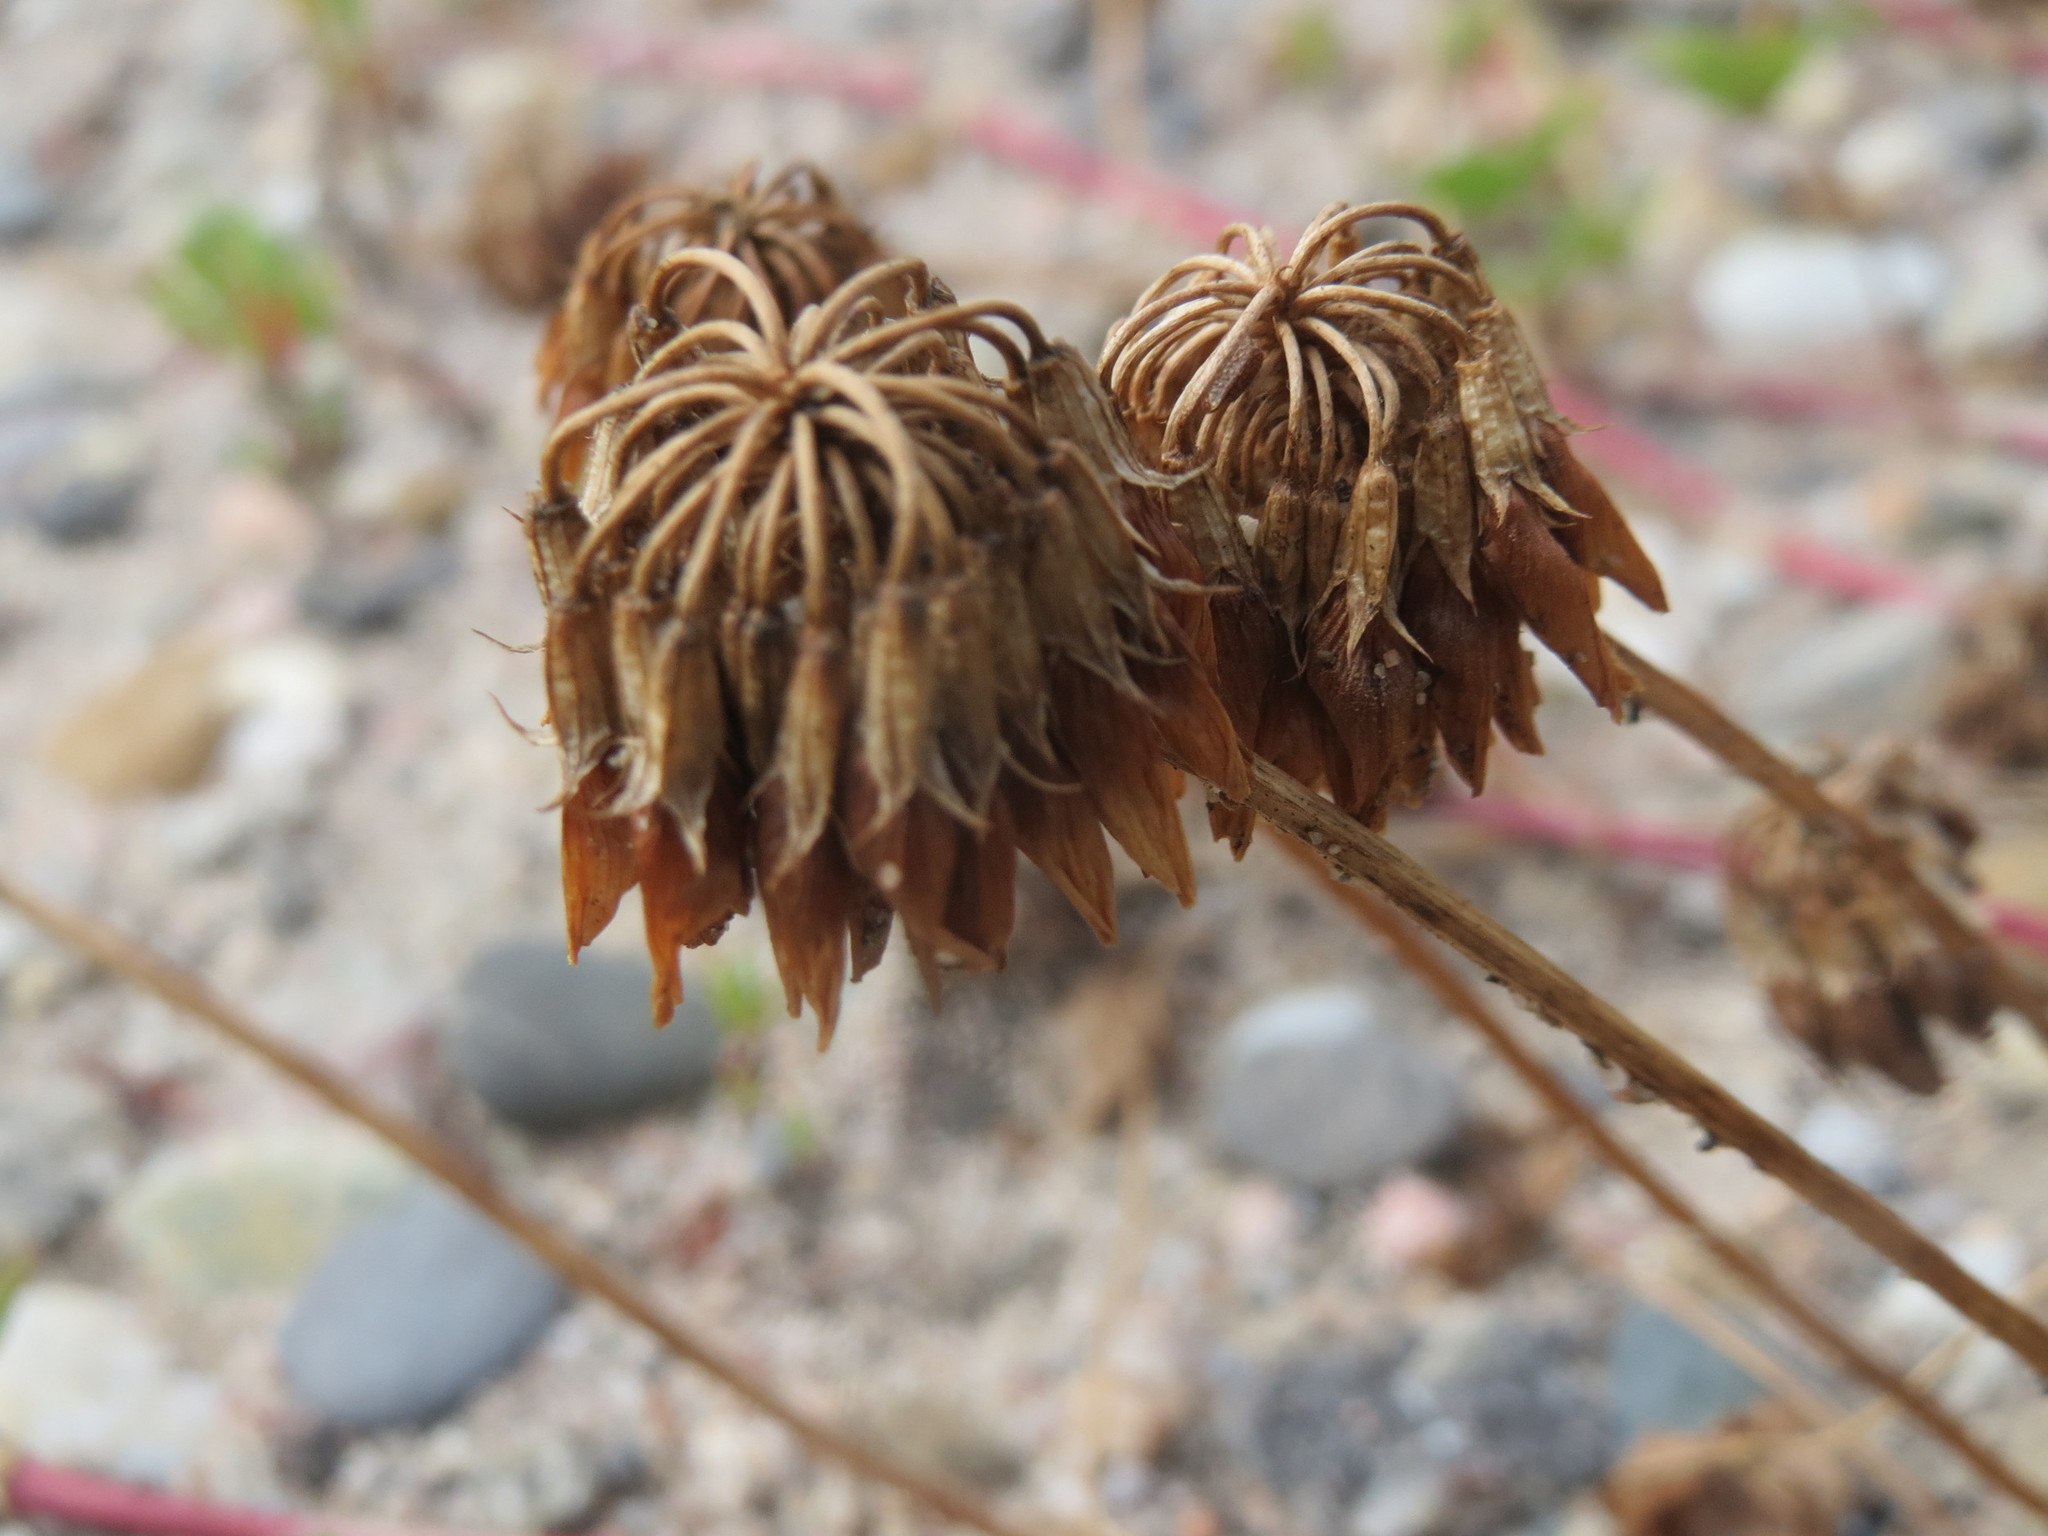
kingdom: Plantae
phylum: Tracheophyta
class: Magnoliopsida
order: Fabales
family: Fabaceae
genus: Trifolium
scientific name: Trifolium repens
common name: White clover
